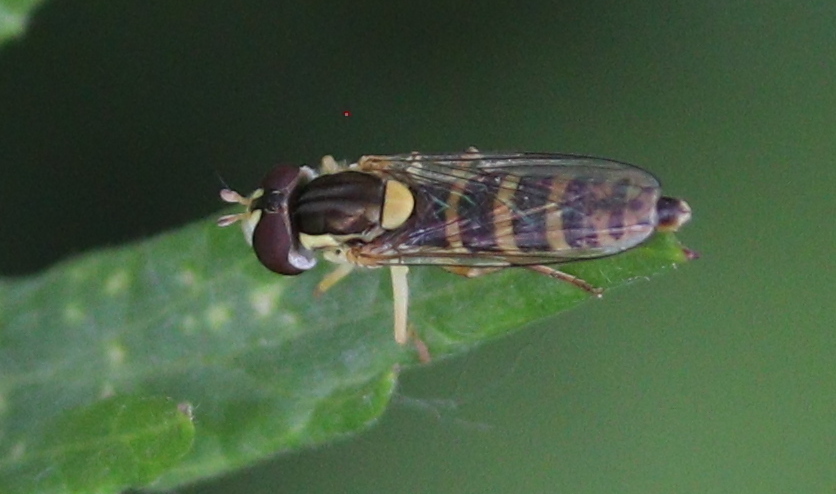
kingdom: Animalia
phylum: Arthropoda
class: Insecta
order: Diptera
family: Syrphidae
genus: Sphaerophoria
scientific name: Sphaerophoria
